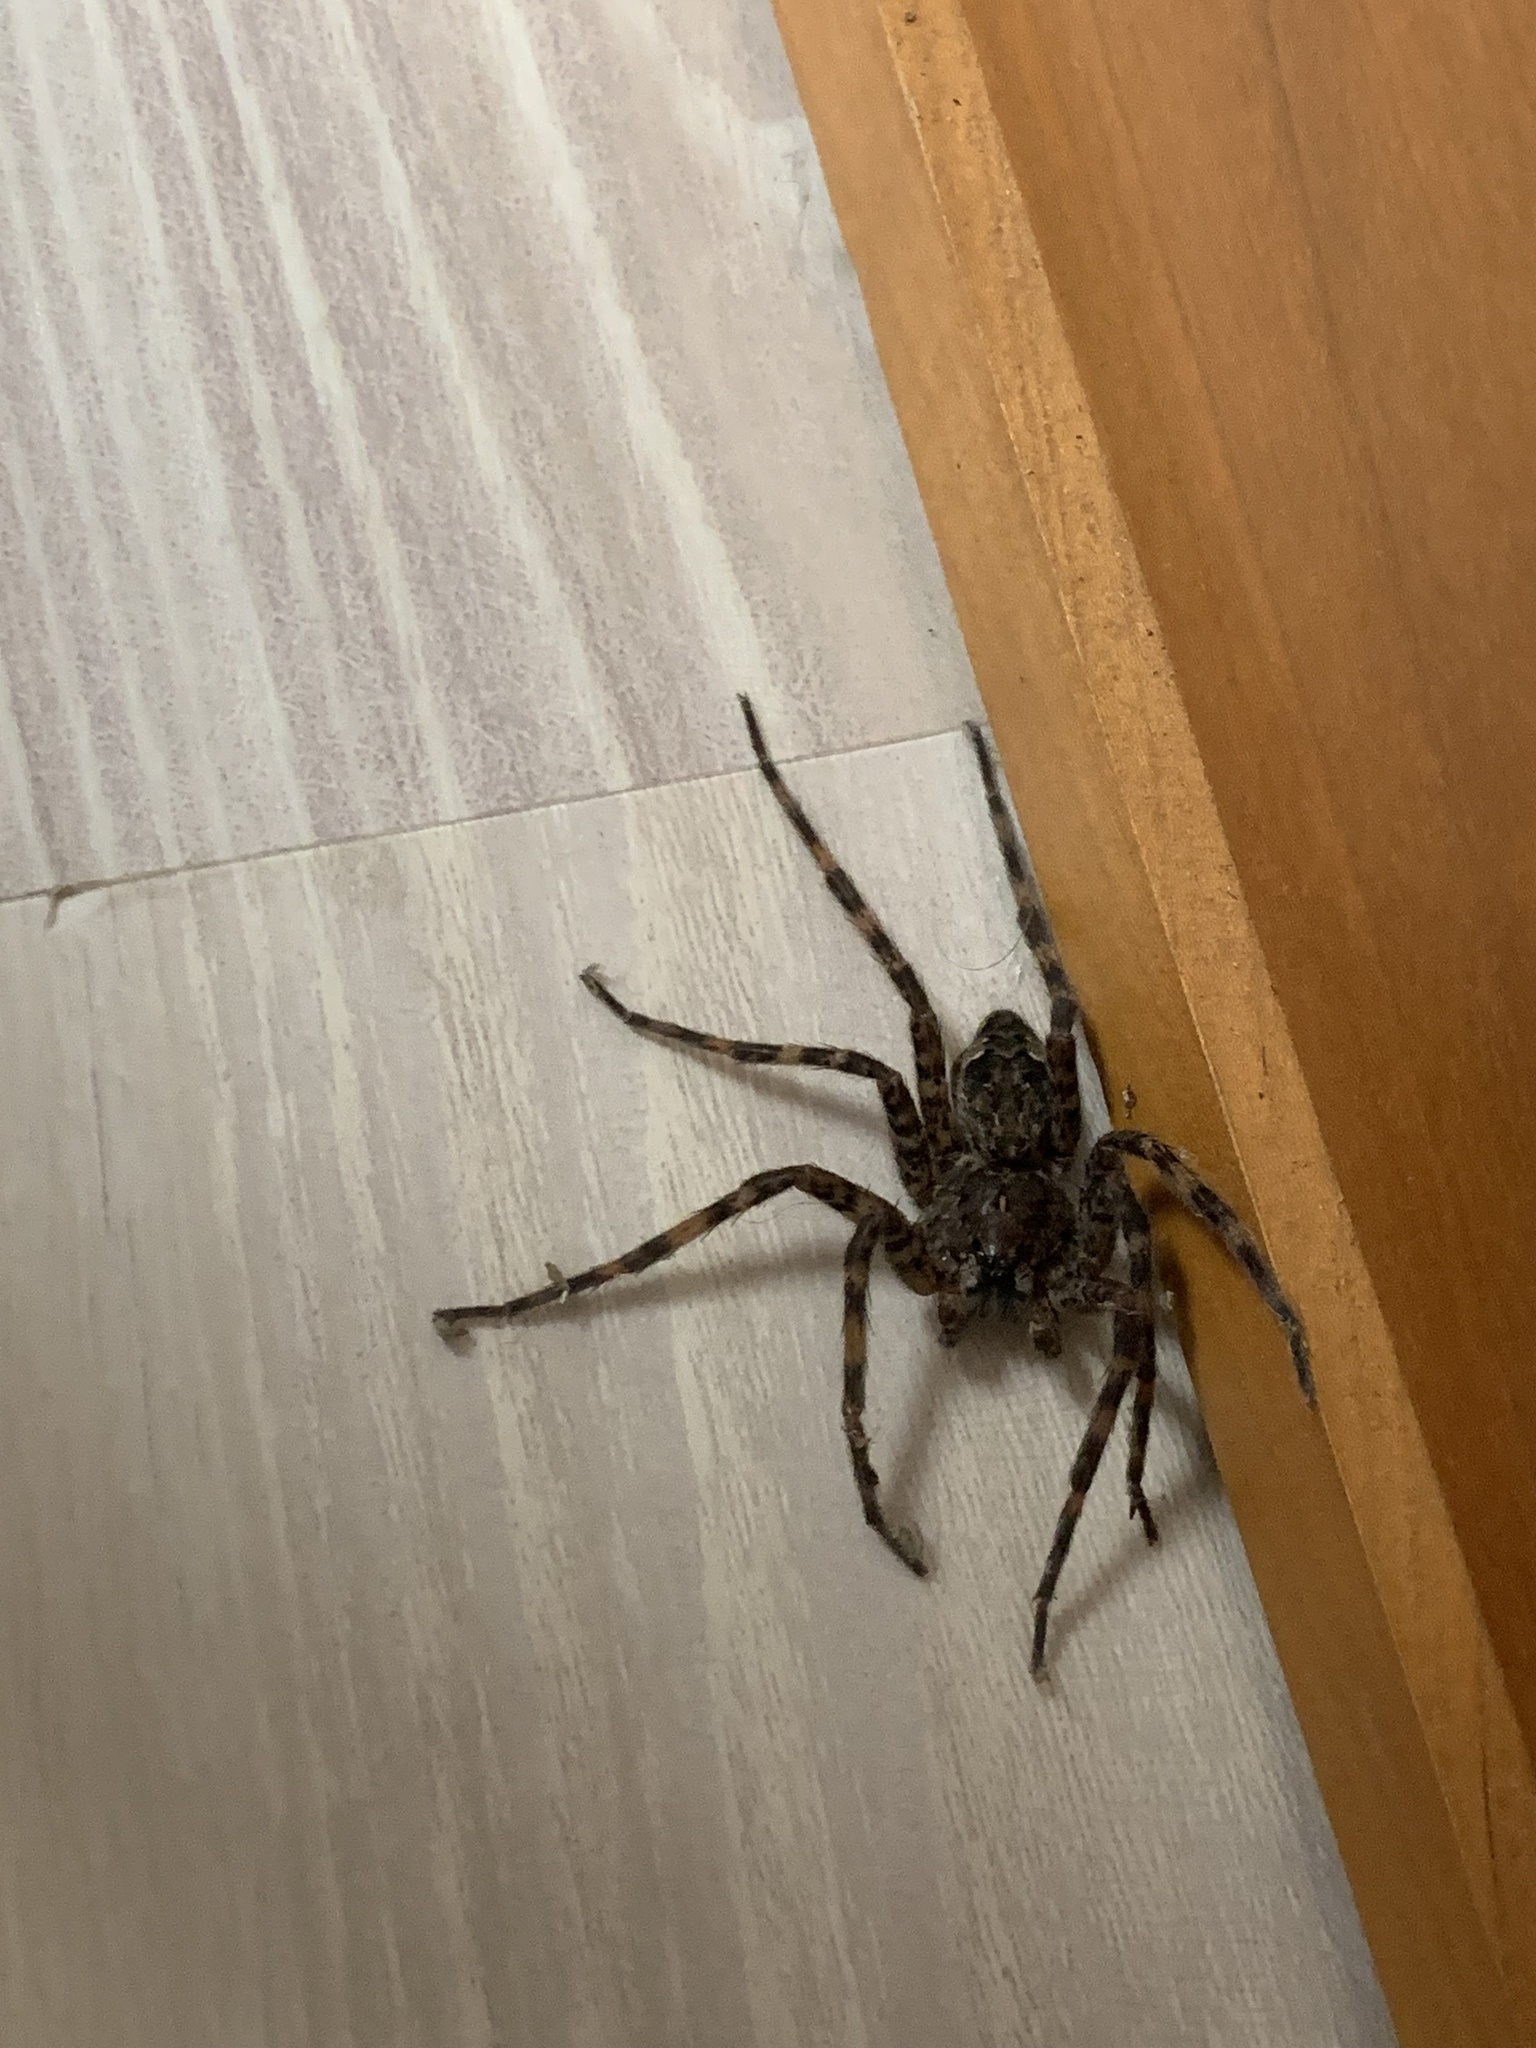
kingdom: Animalia
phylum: Arthropoda
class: Arachnida
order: Araneae
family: Pisauridae
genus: Dolomedes
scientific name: Dolomedes tenebrosus
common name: Dark fishing spider
